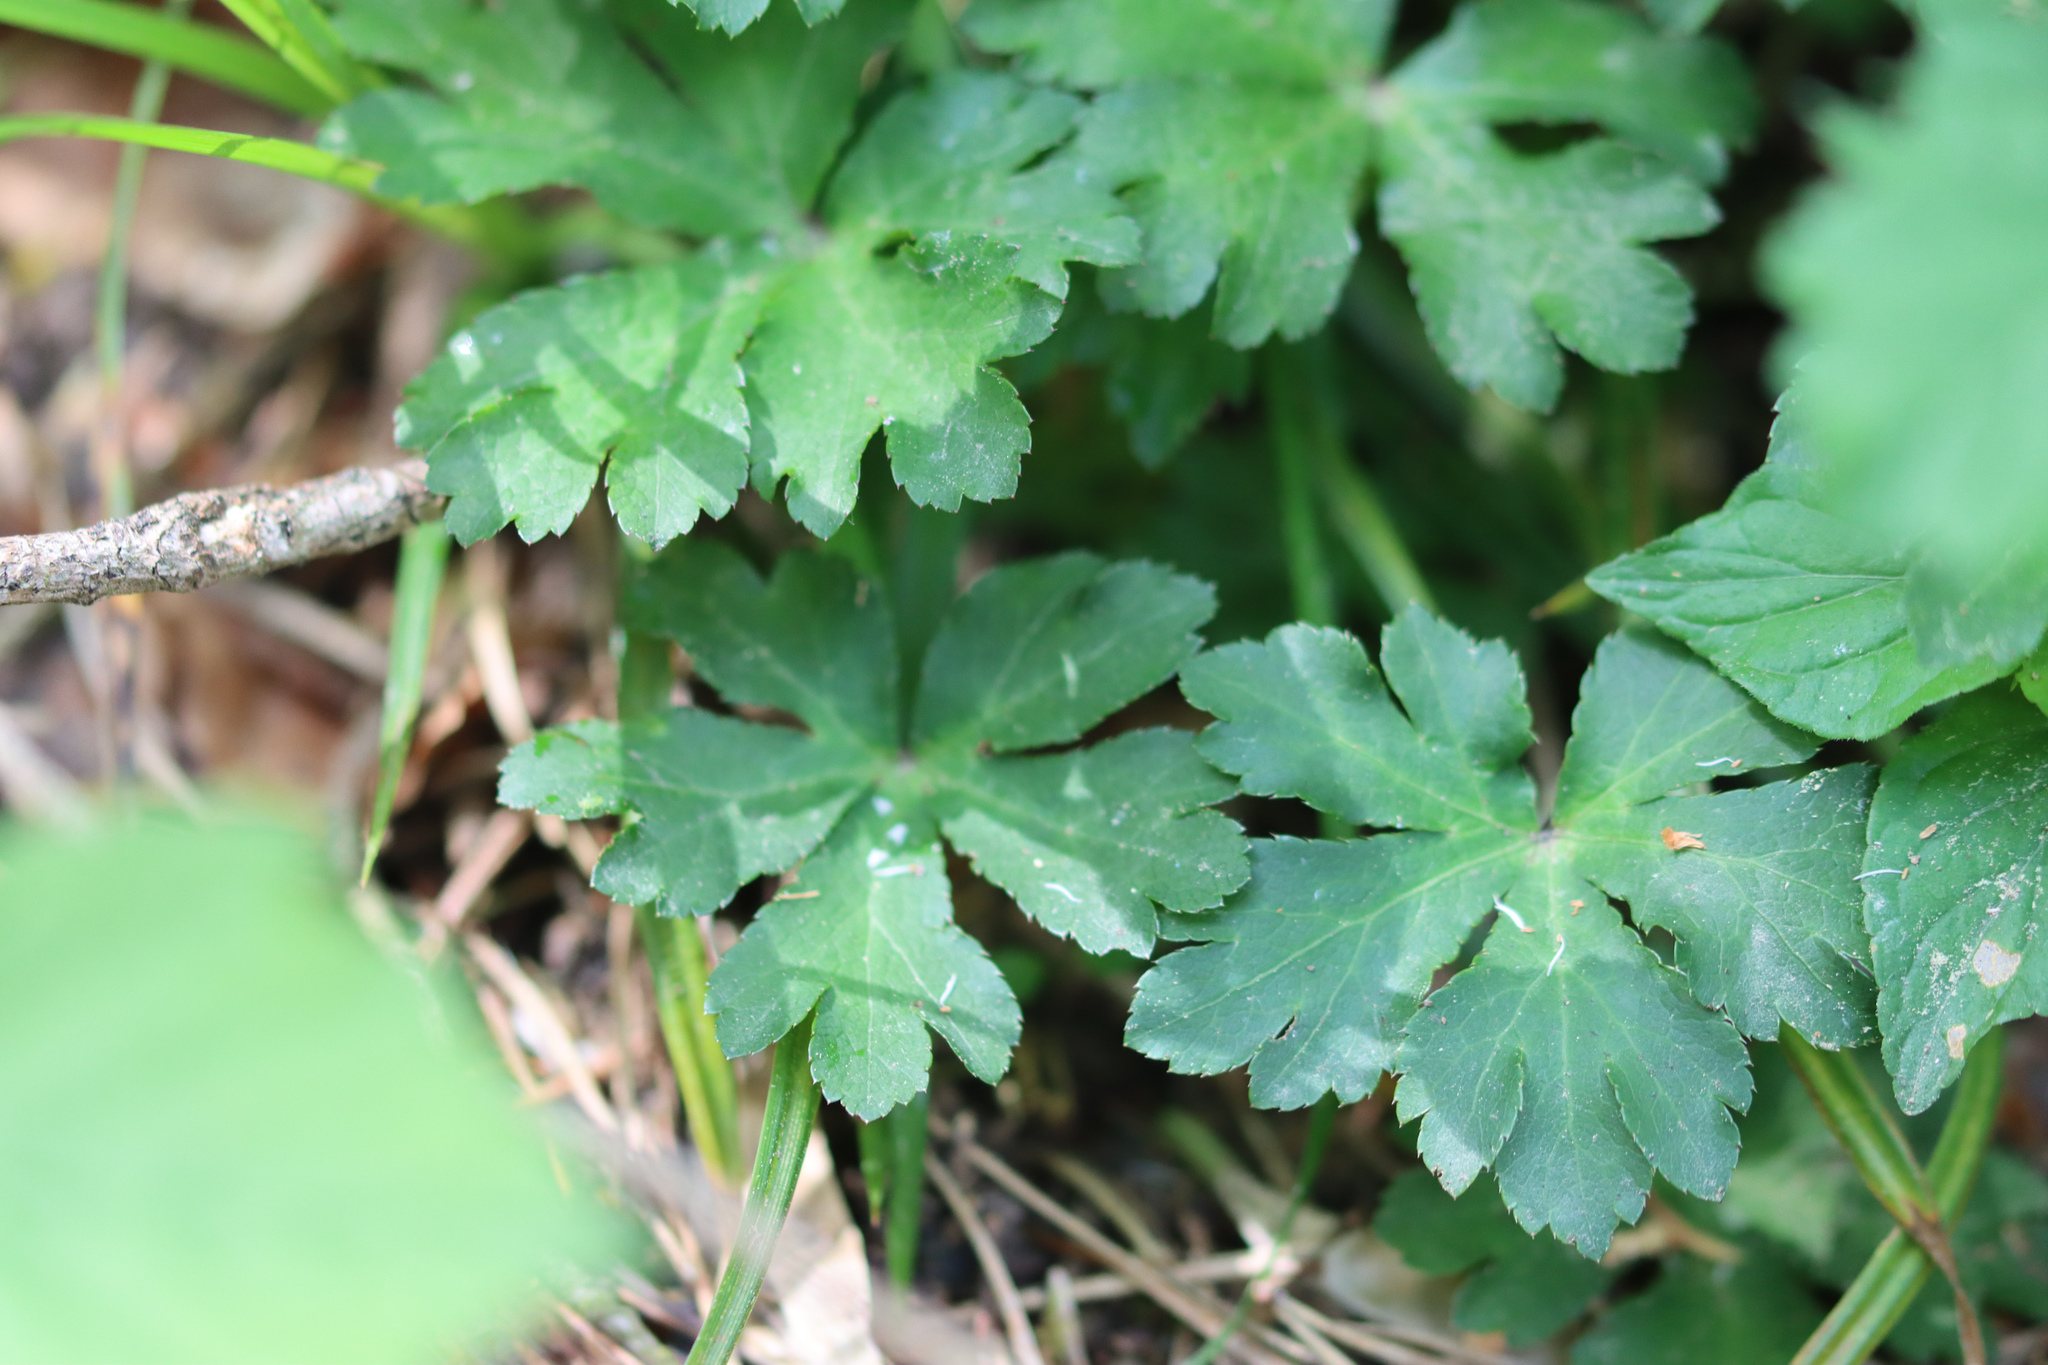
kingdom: Plantae
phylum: Tracheophyta
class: Magnoliopsida
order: Apiales
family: Apiaceae
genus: Sanicula
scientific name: Sanicula europaea
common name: Sanicle
